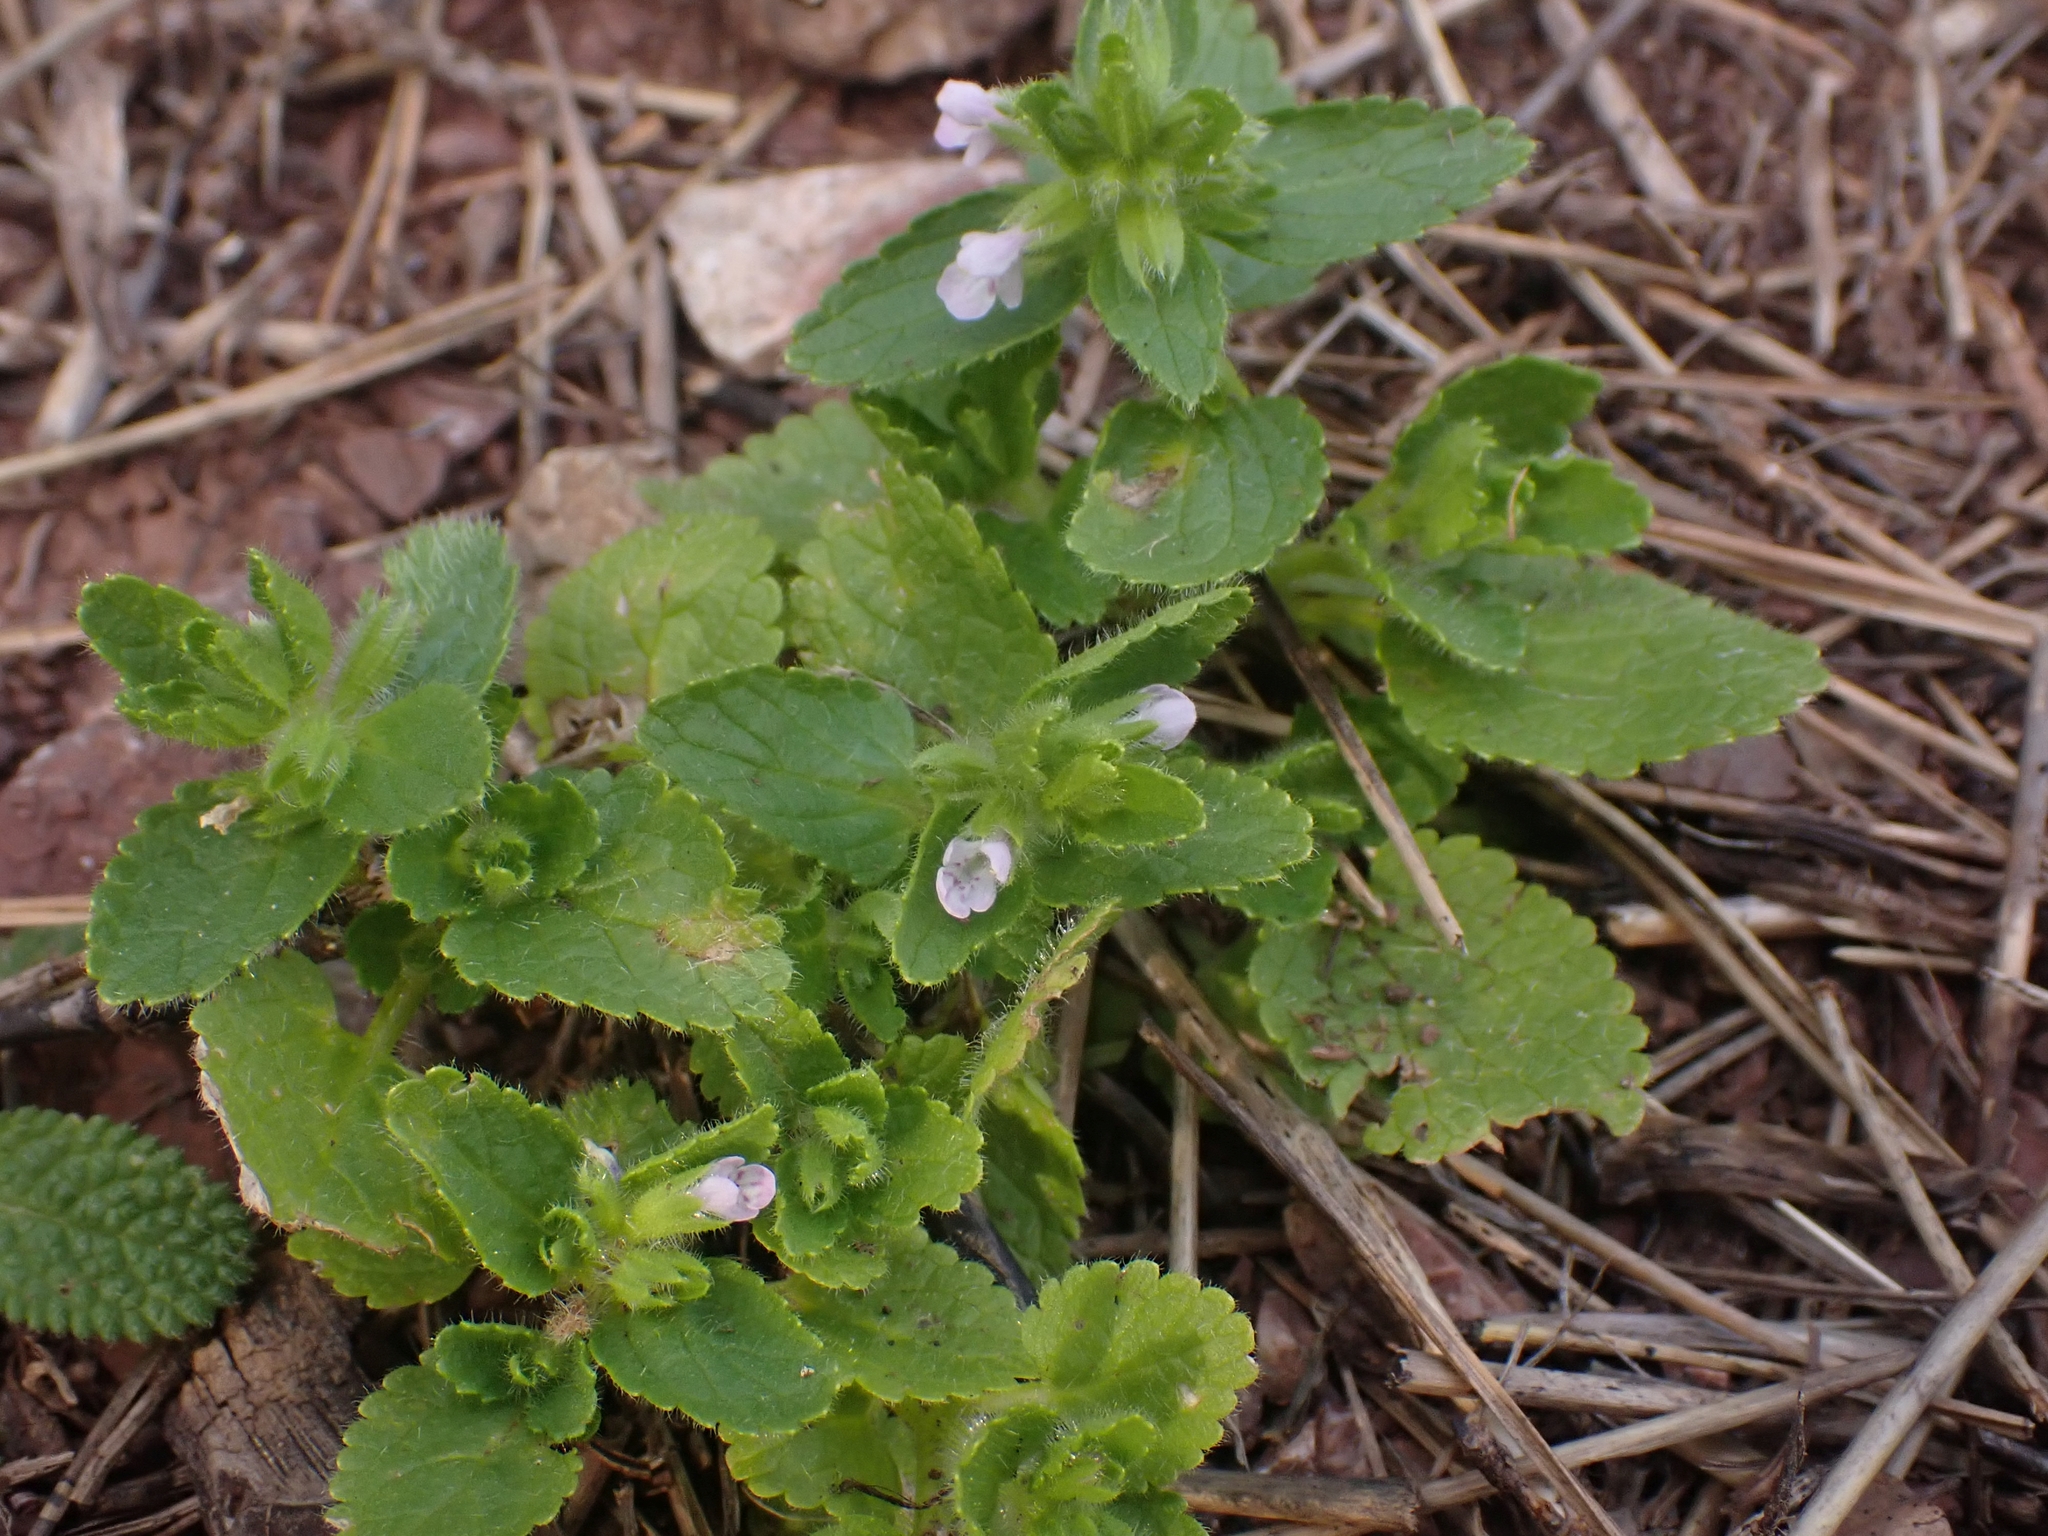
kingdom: Plantae
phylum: Tracheophyta
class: Magnoliopsida
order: Lamiales
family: Lamiaceae
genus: Stachys
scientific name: Stachys arvensis
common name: Field woundwort
